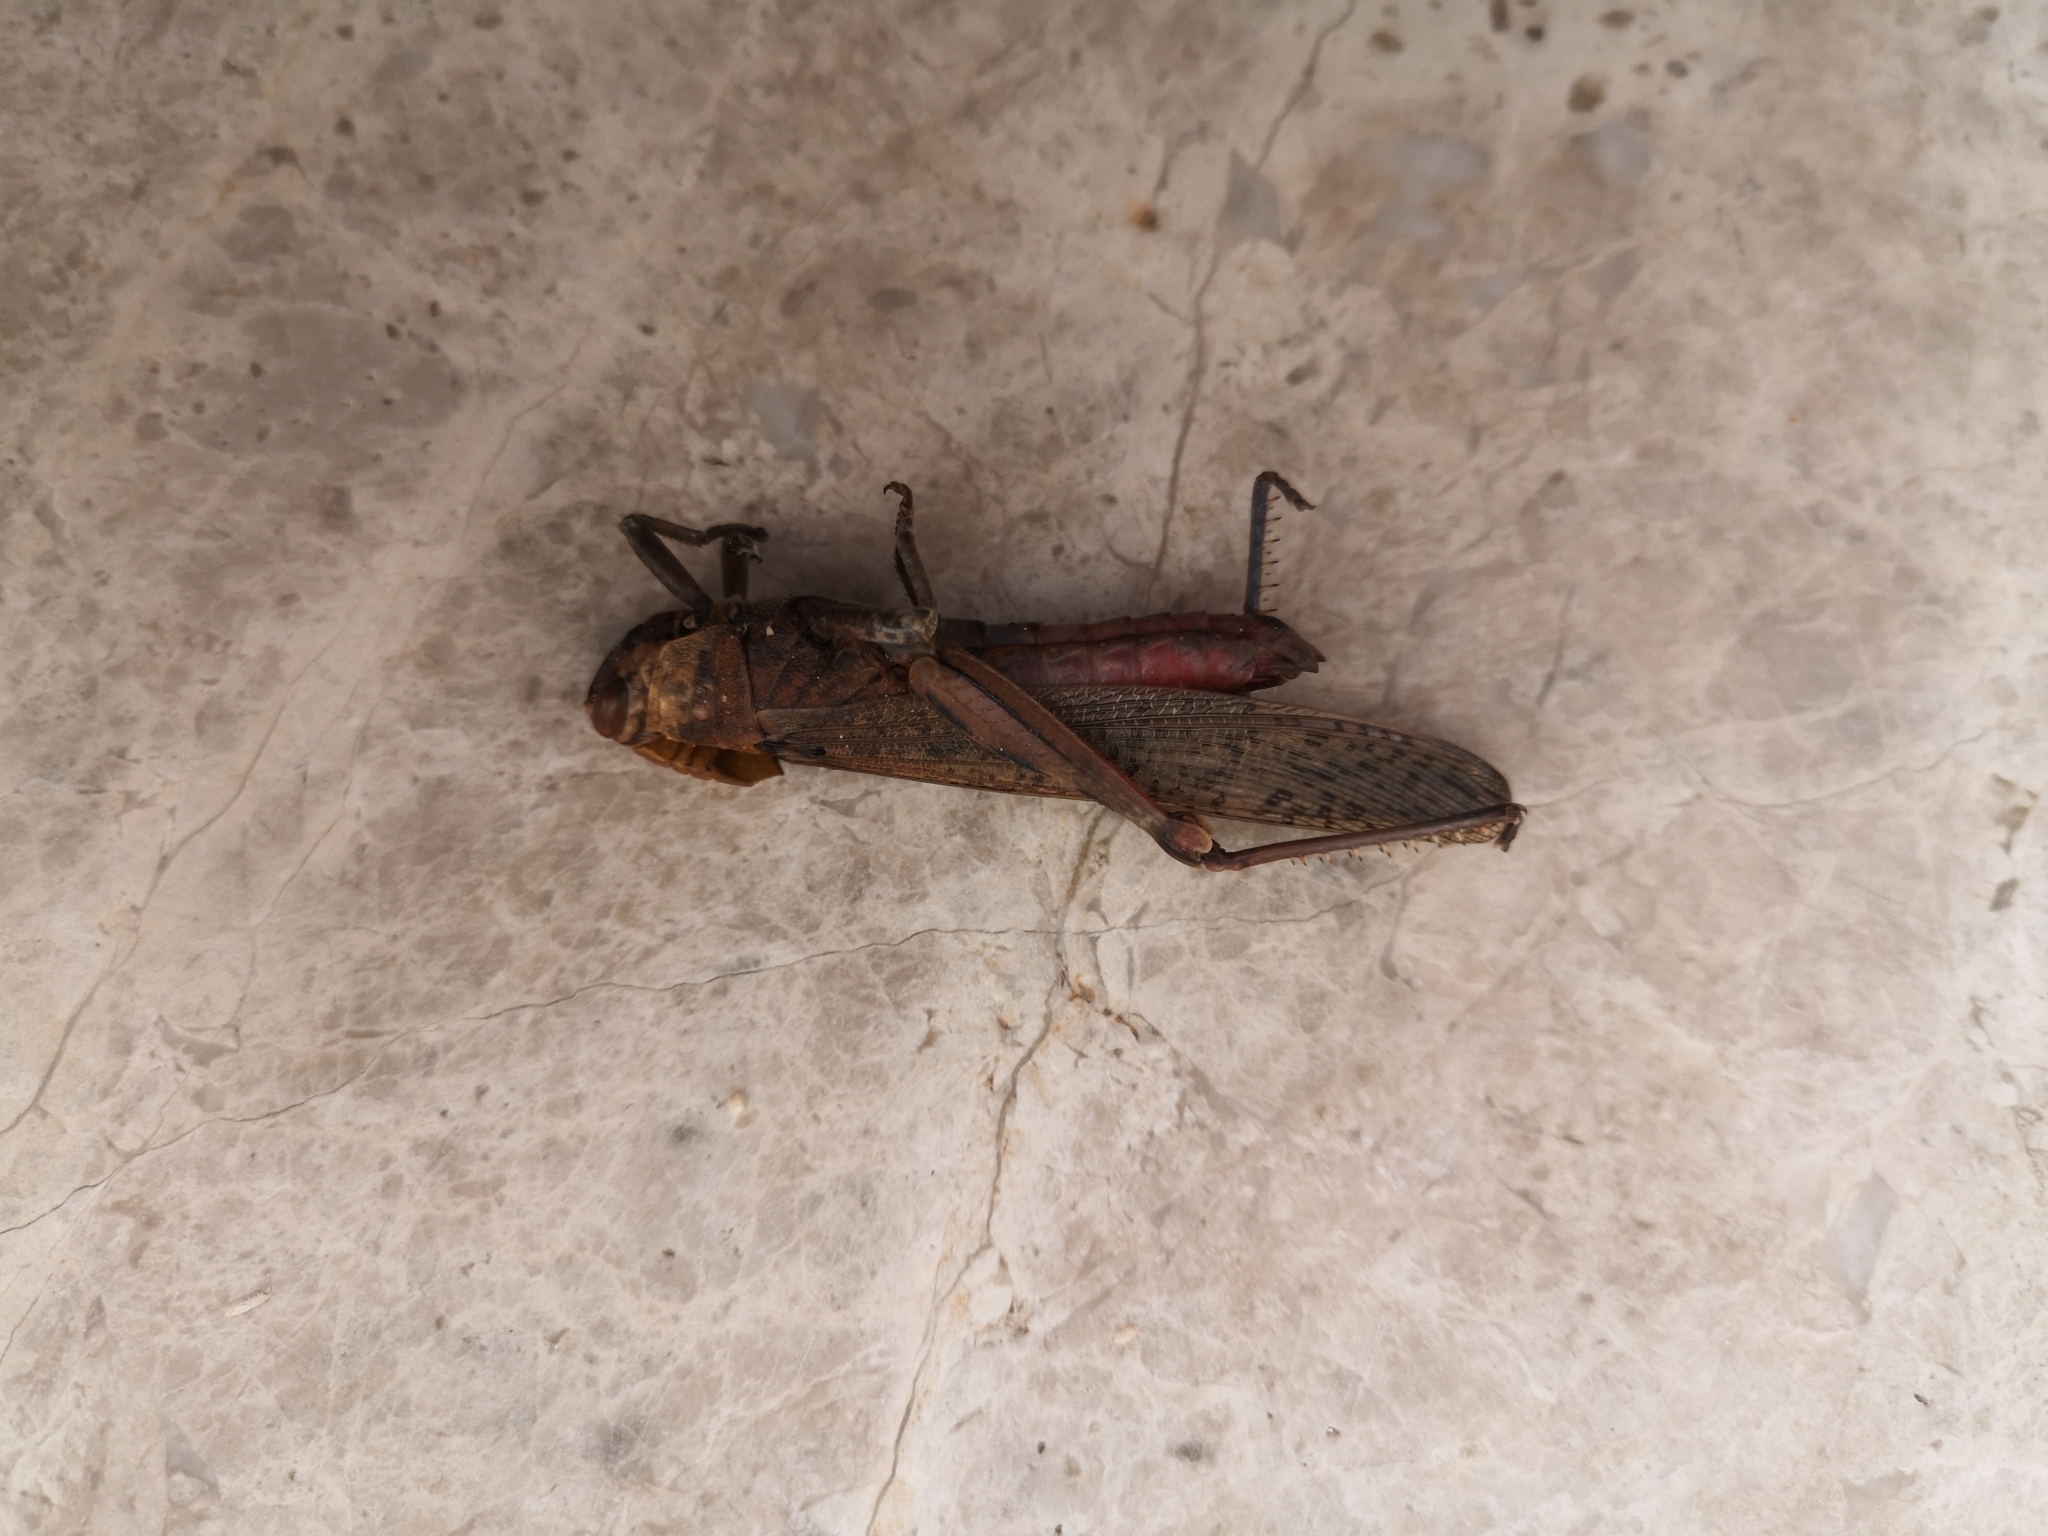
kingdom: Animalia
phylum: Arthropoda
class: Insecta
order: Orthoptera
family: Acrididae
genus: Anacridium
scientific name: Anacridium aegyptium
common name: Egyptian grasshopper
